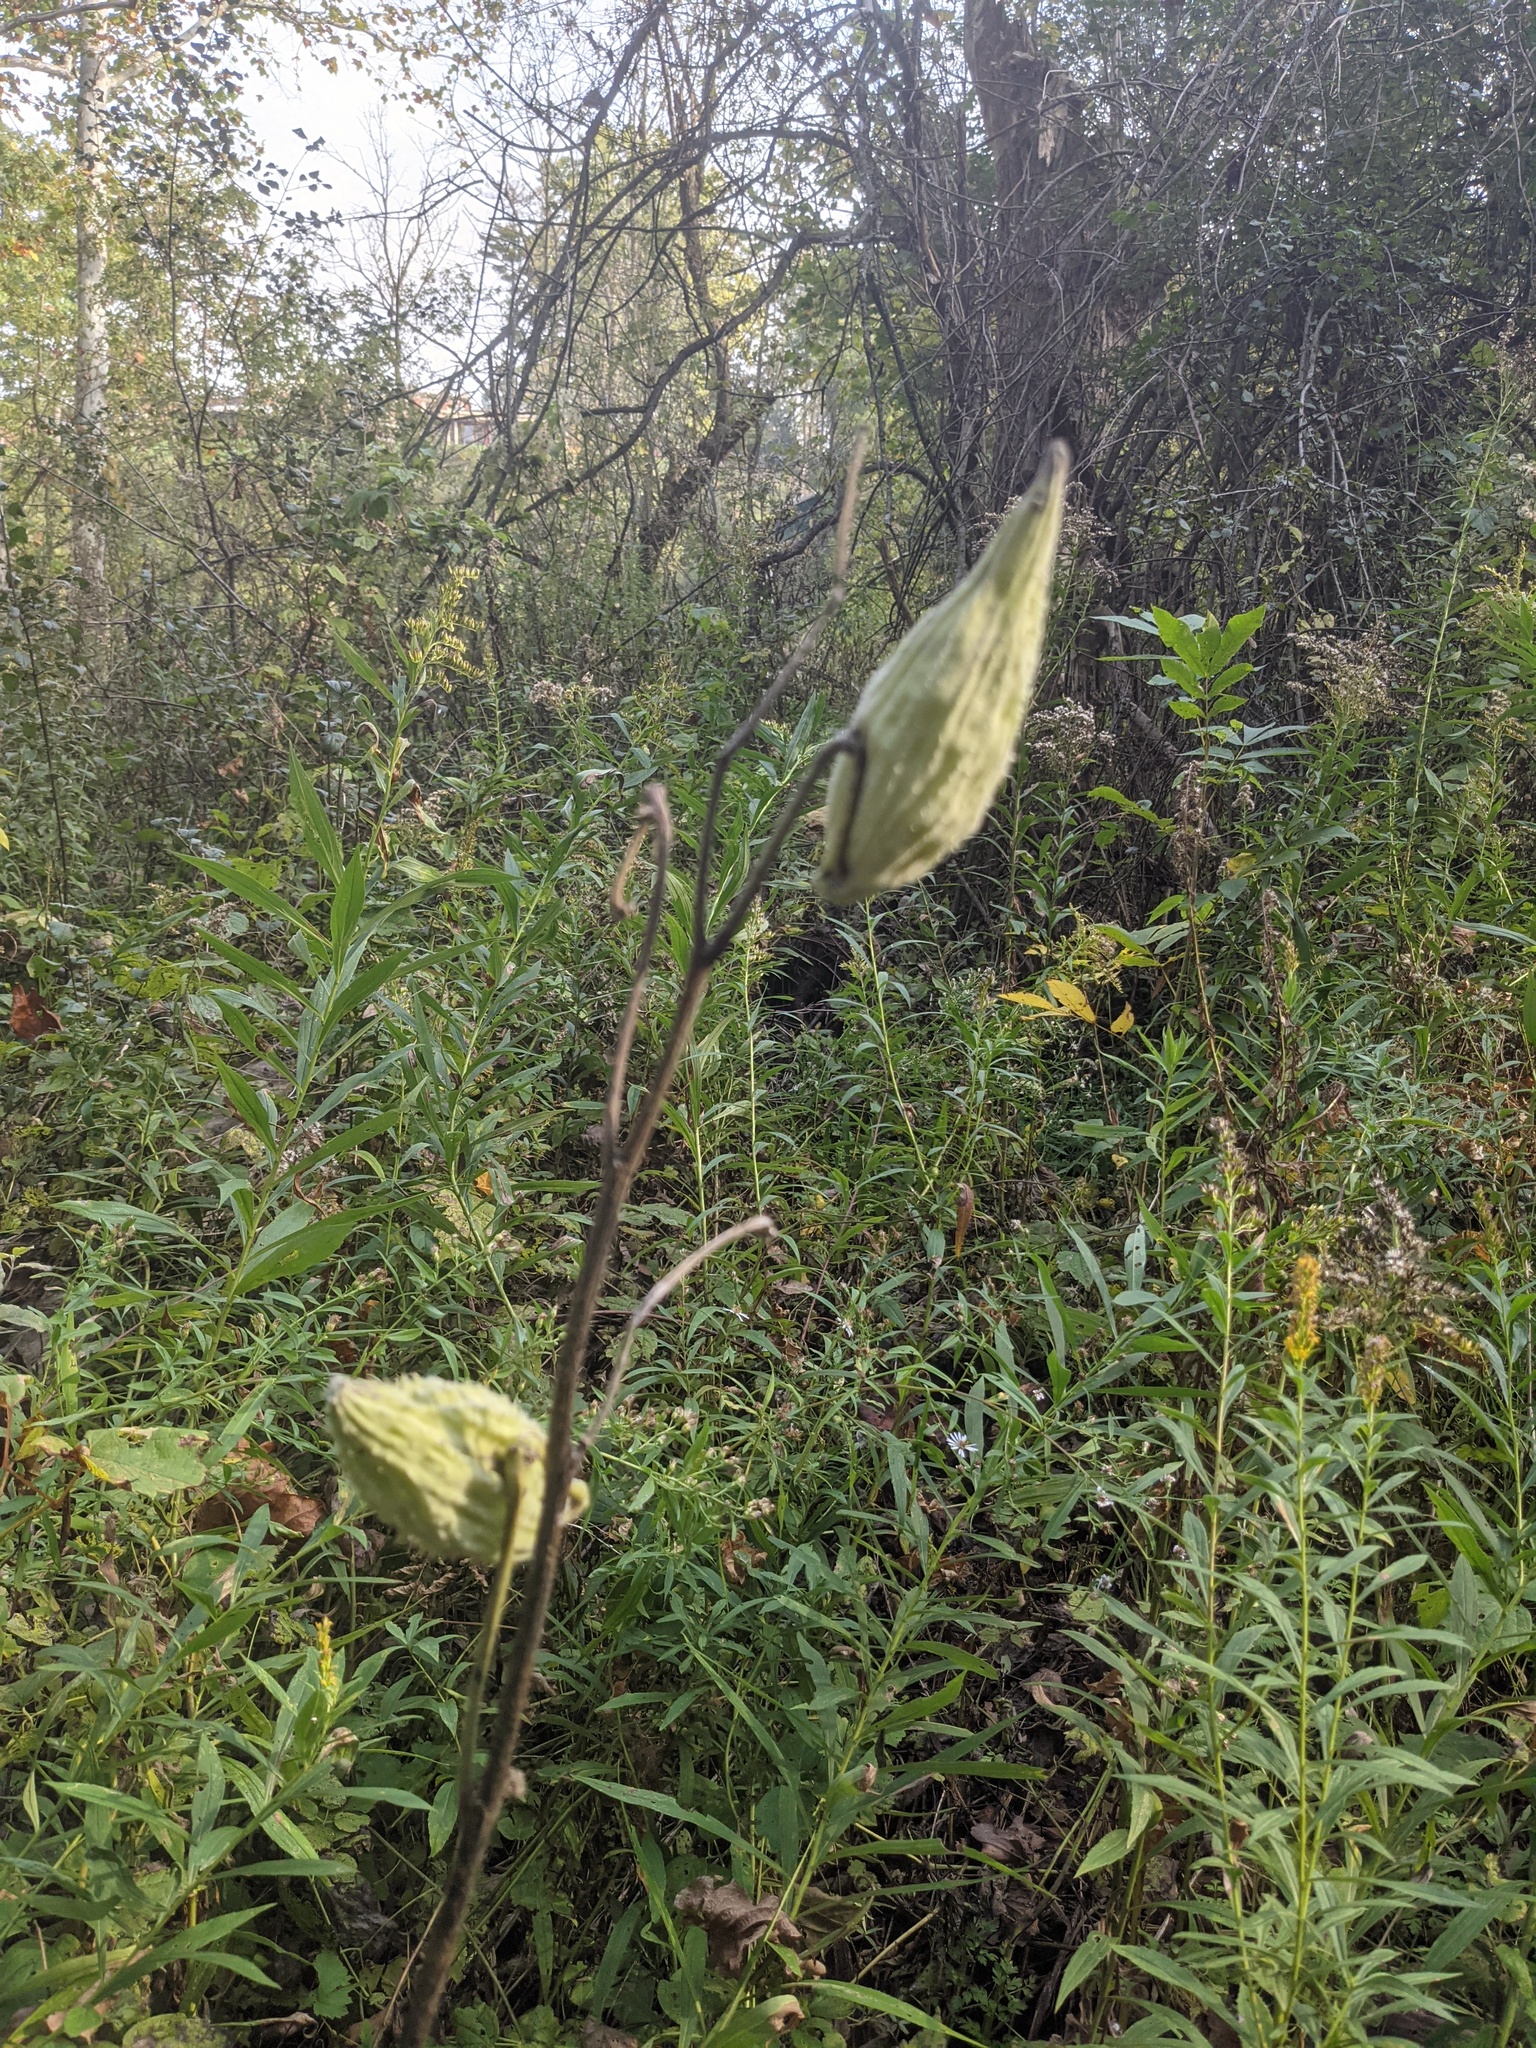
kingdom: Plantae
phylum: Tracheophyta
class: Magnoliopsida
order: Gentianales
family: Apocynaceae
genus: Asclepias
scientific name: Asclepias syriaca
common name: Common milkweed
